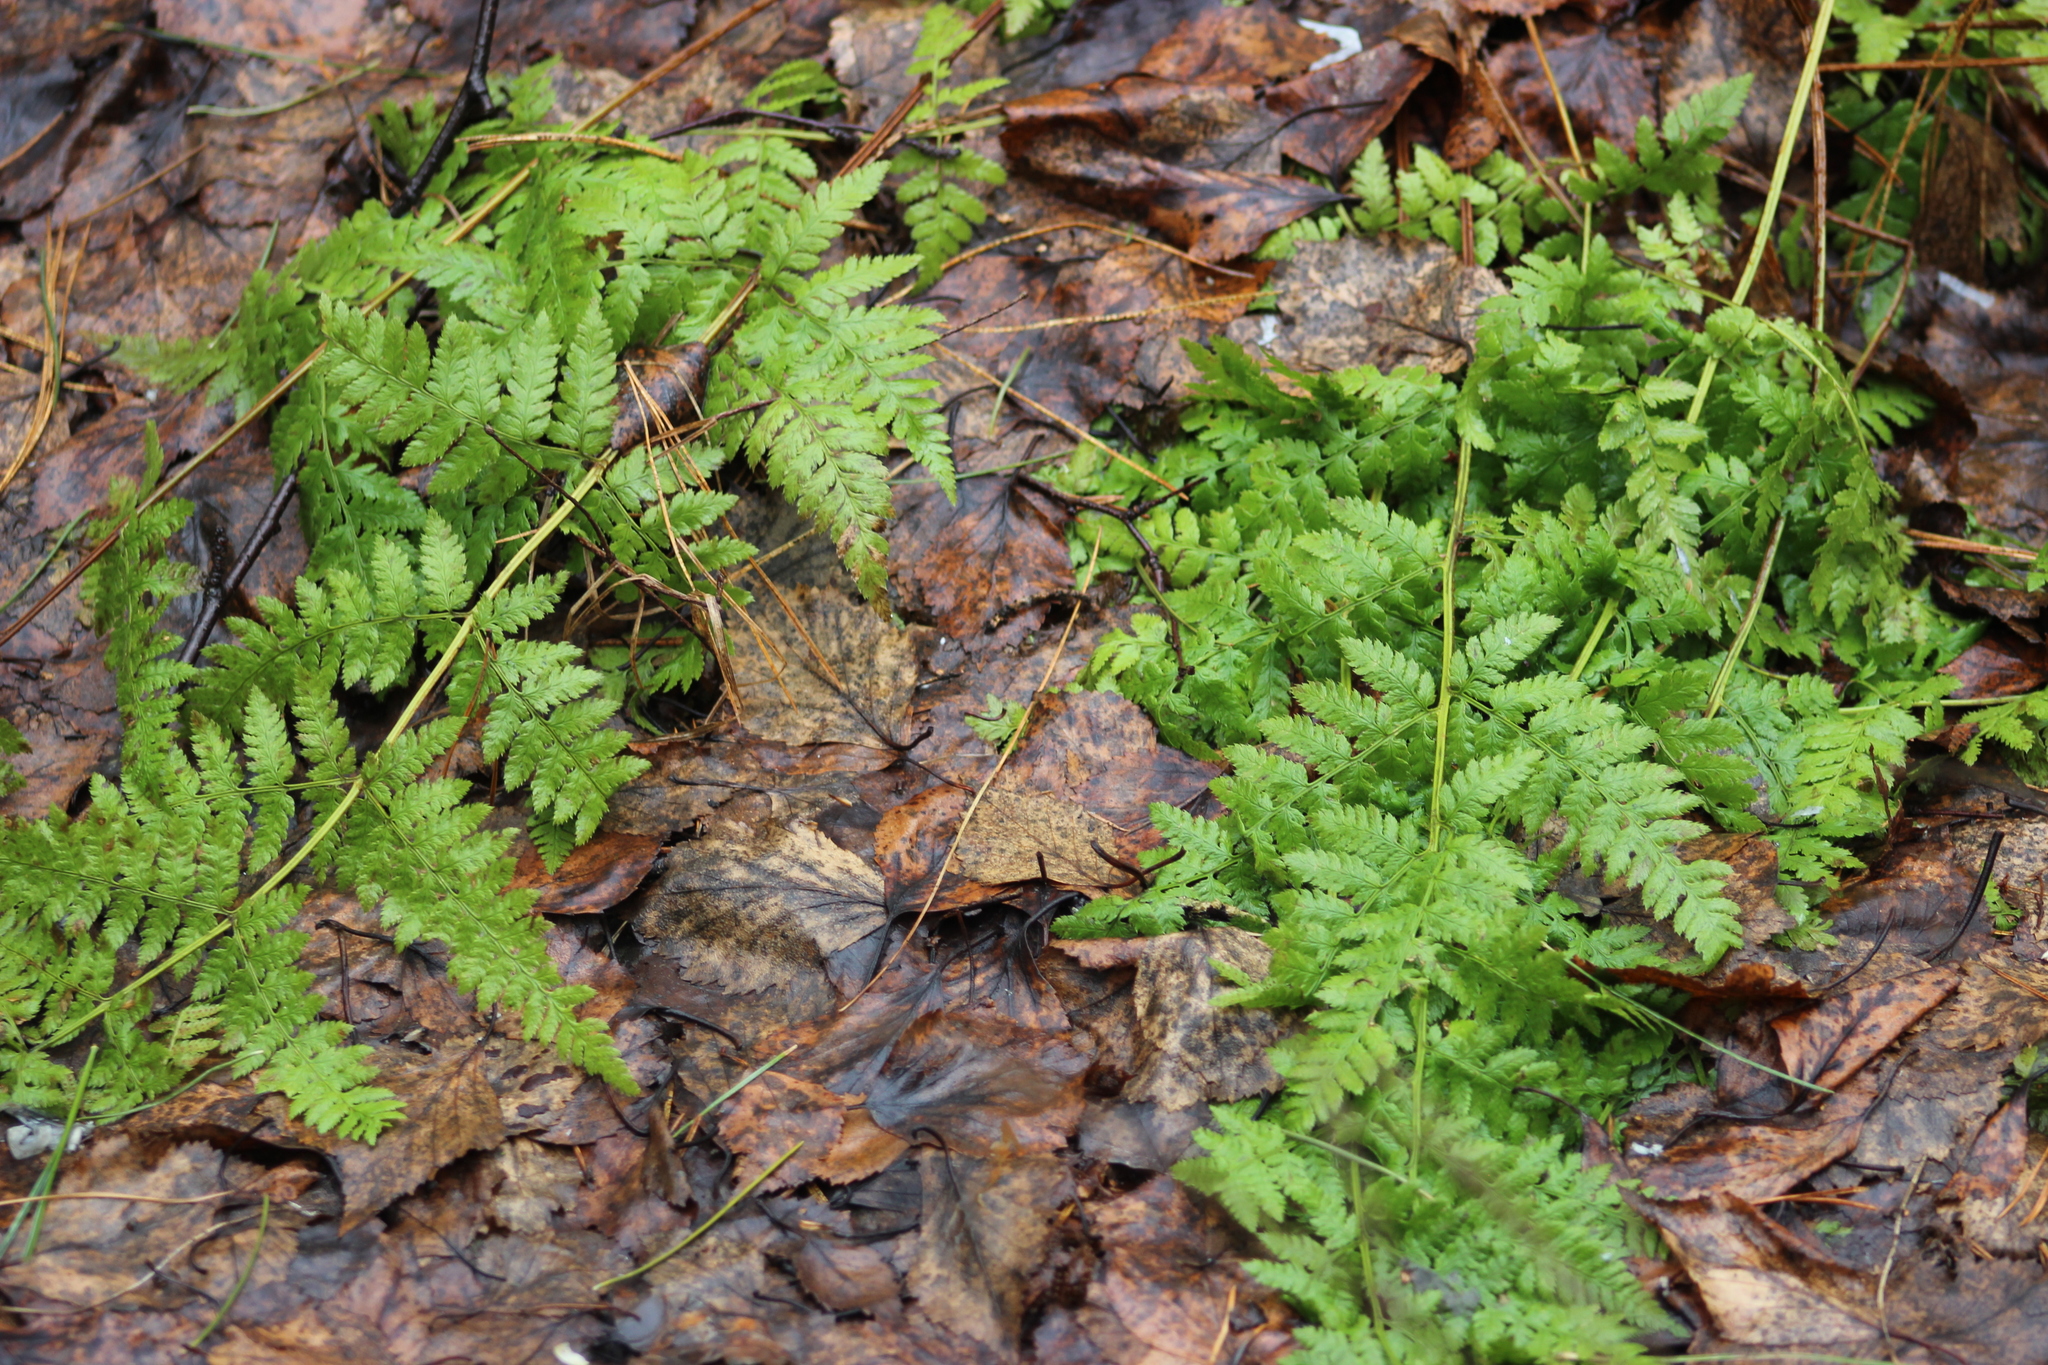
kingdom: Plantae
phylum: Tracheophyta
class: Polypodiopsida
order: Polypodiales
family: Dryopteridaceae
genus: Dryopteris
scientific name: Dryopteris carthusiana
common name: Narrow buckler-fern
